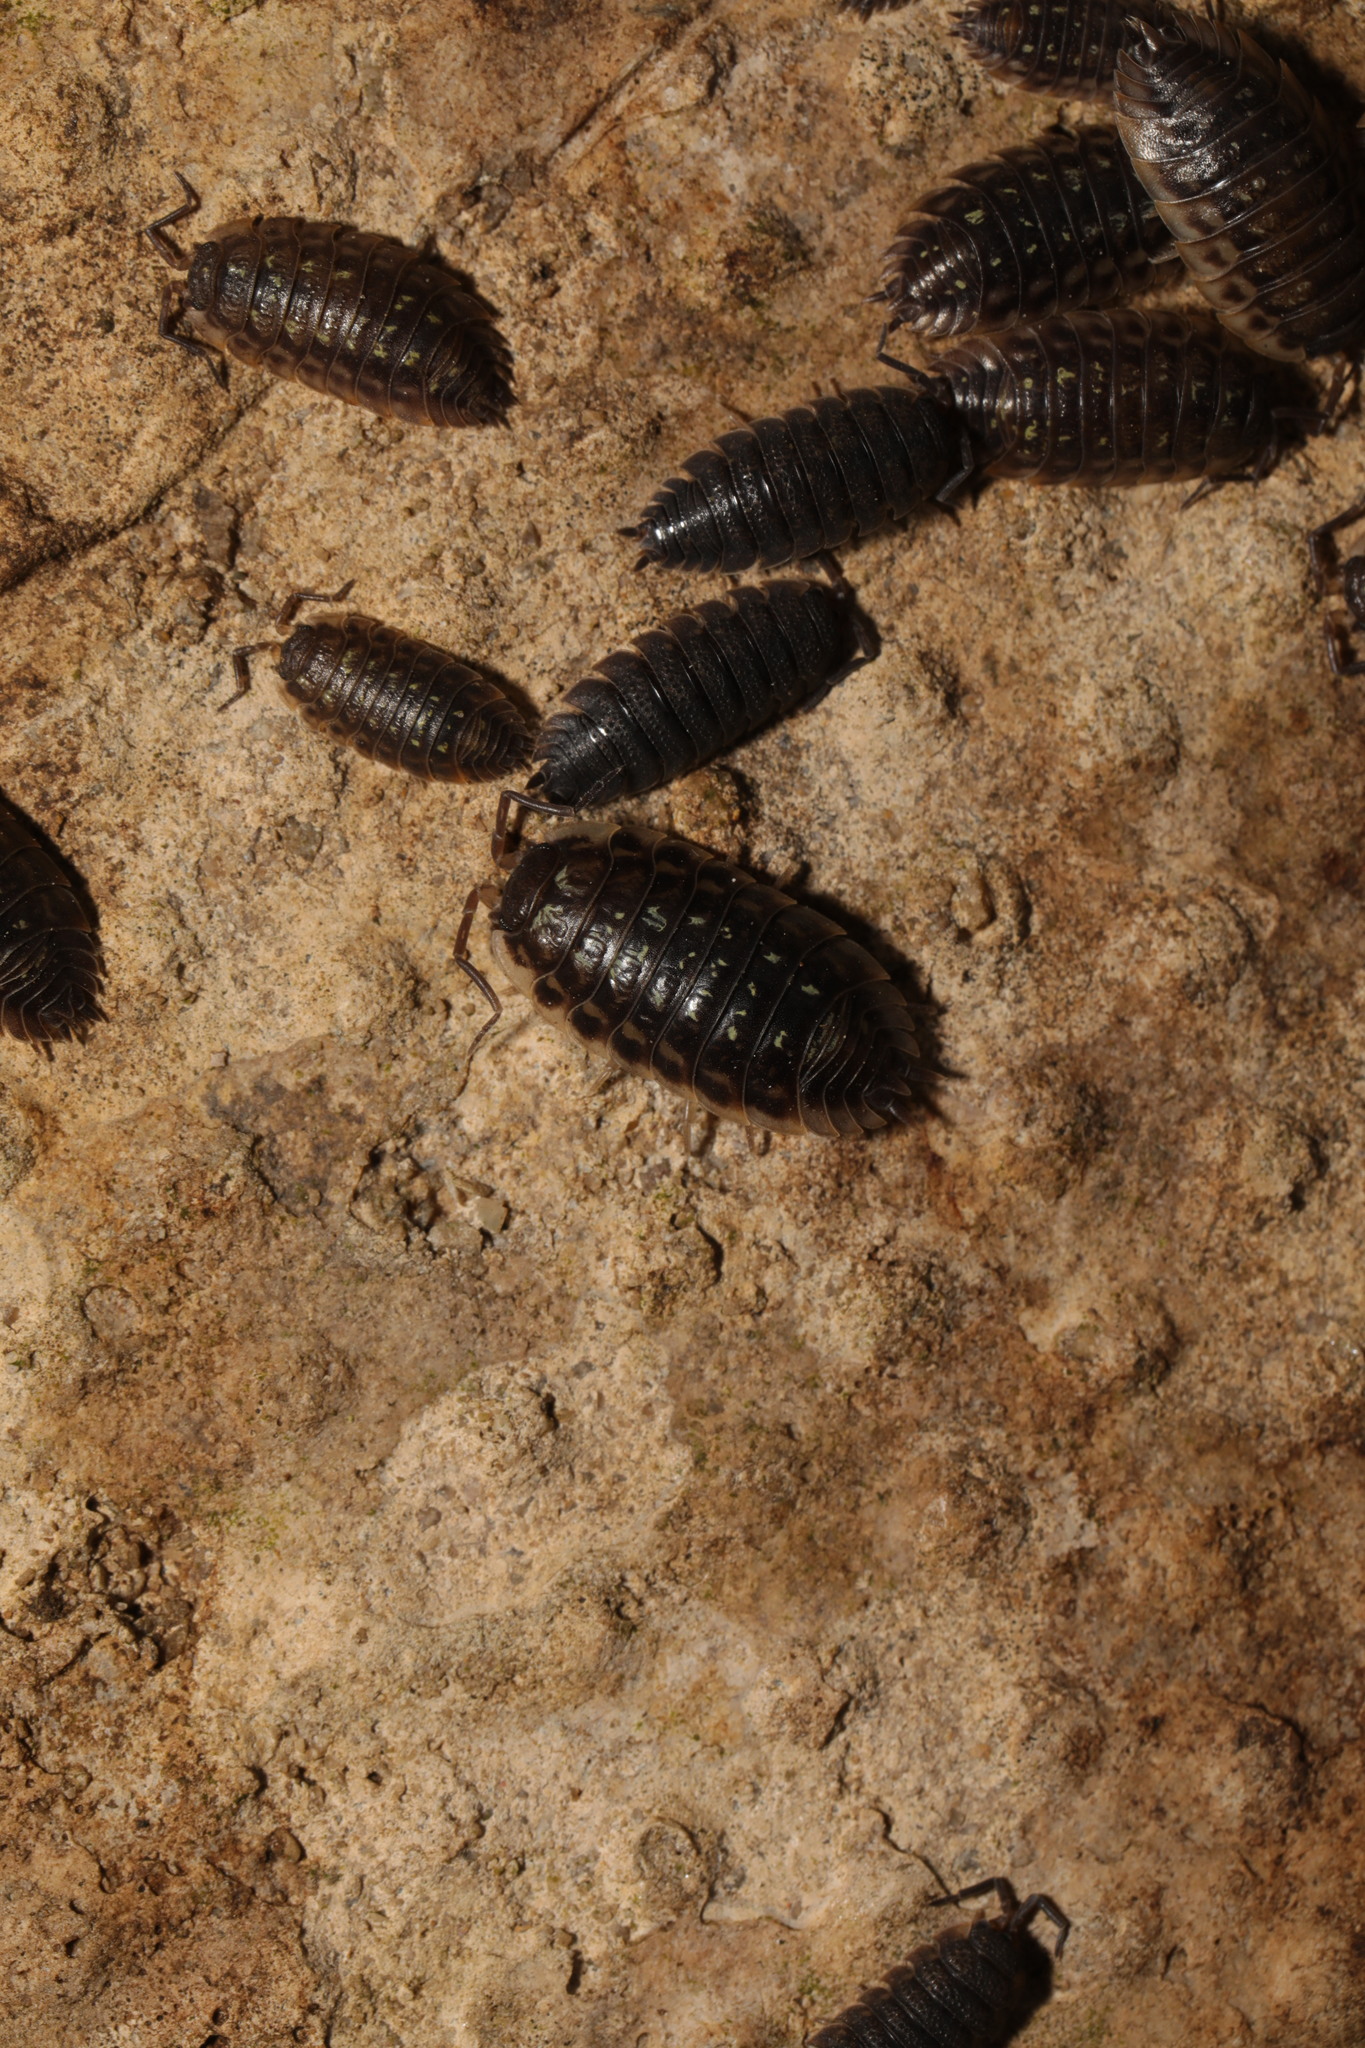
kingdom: Animalia
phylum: Arthropoda
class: Malacostraca
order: Isopoda
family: Oniscidae
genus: Oniscus
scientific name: Oniscus asellus
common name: Common shiny woodlouse
